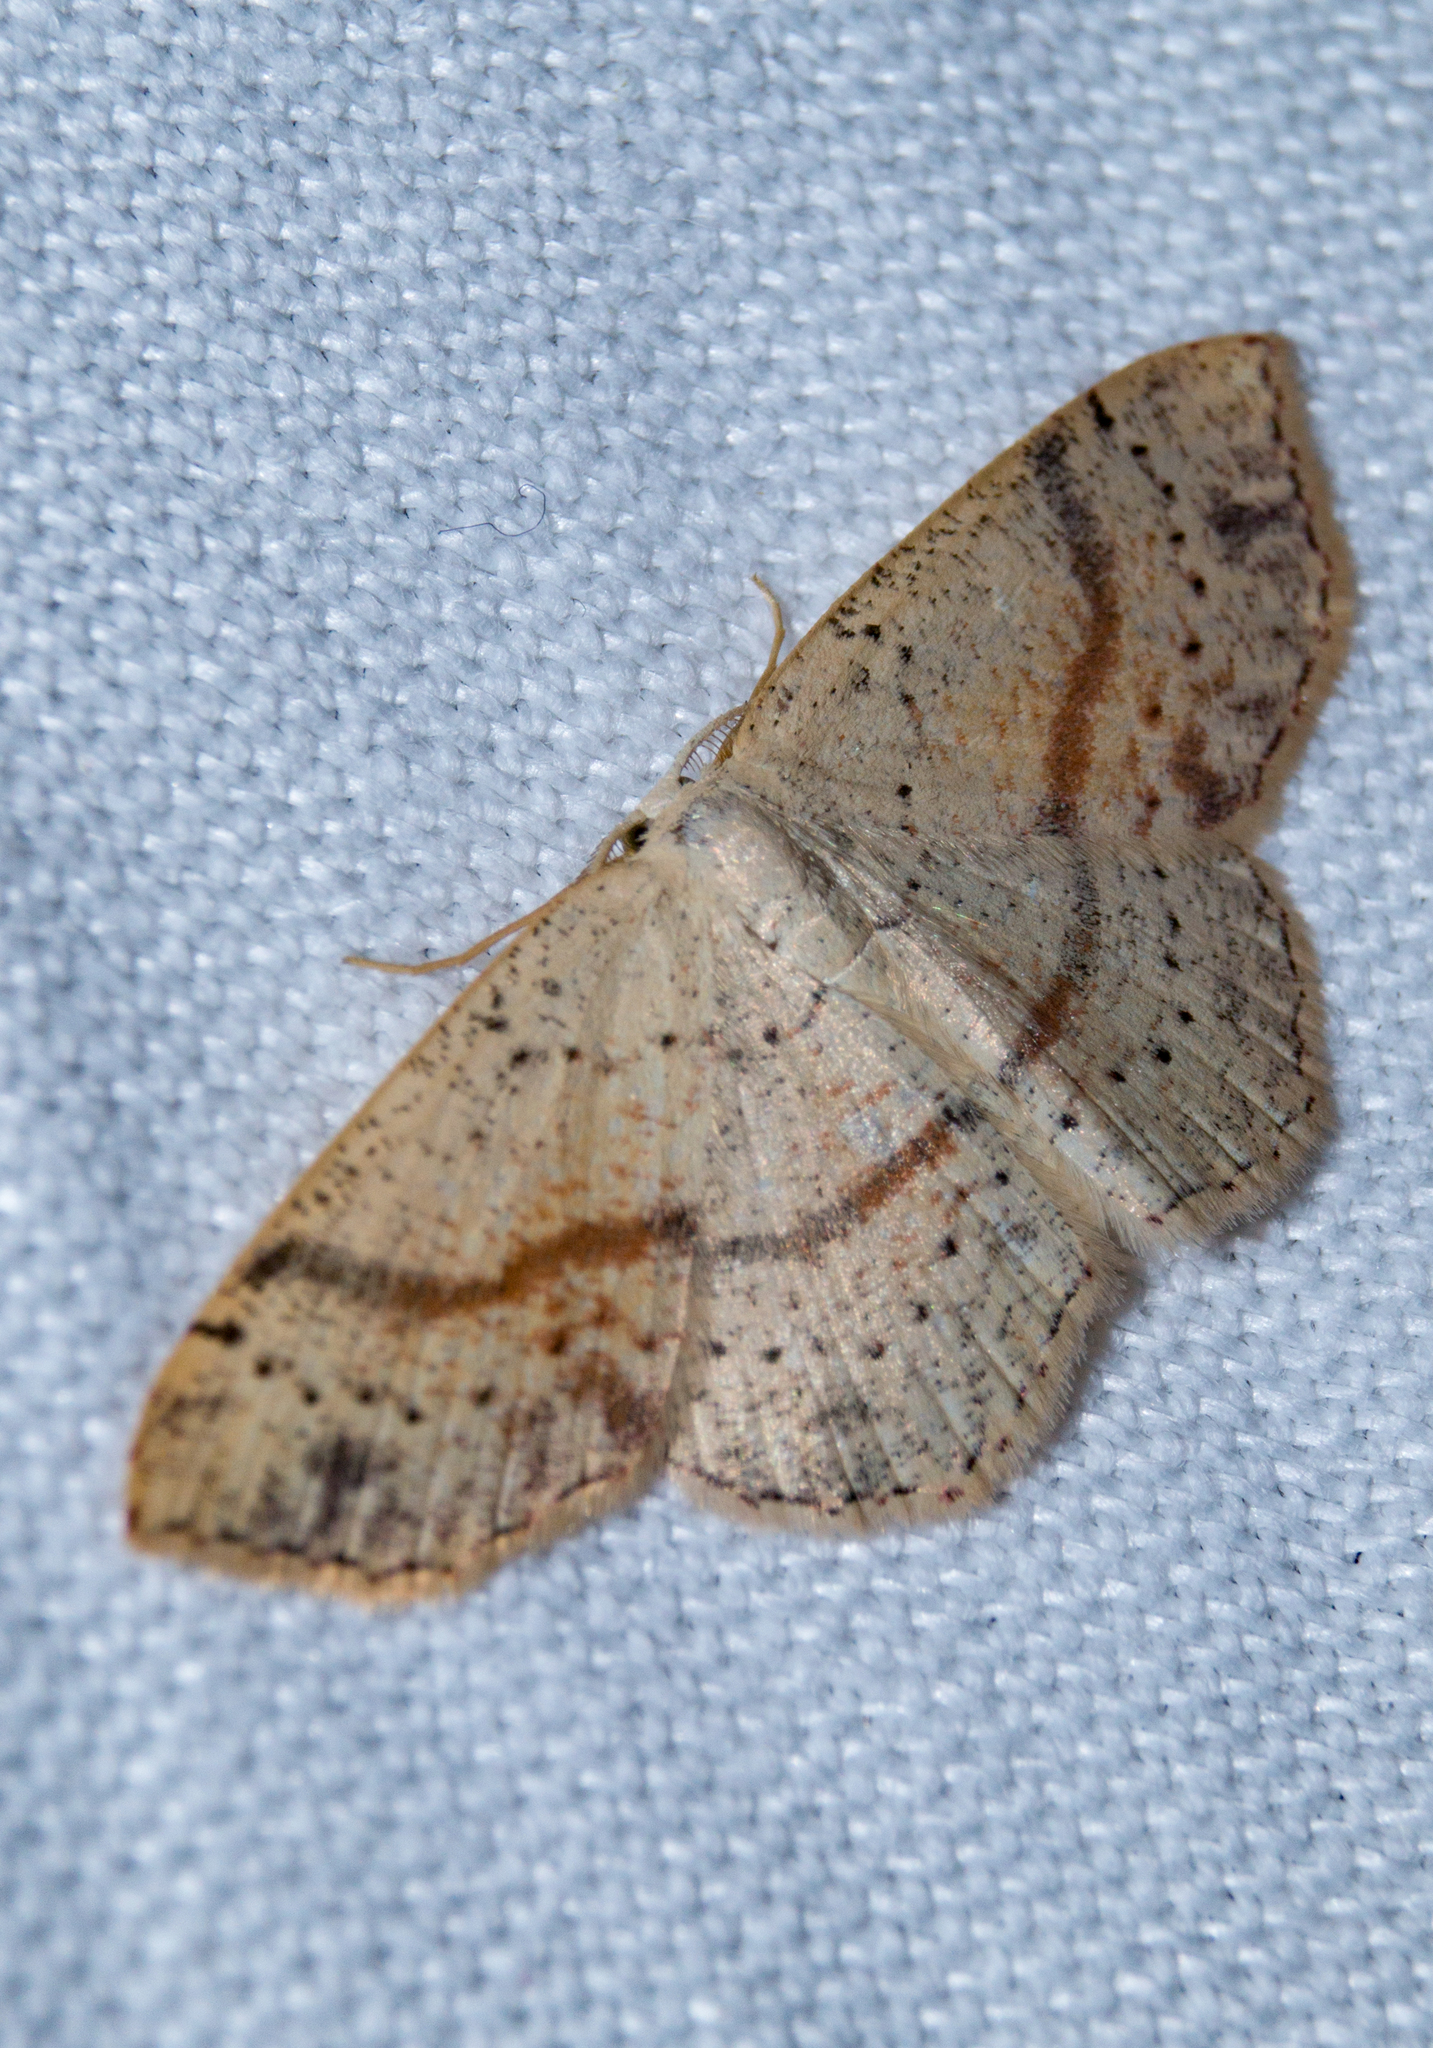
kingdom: Animalia
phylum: Arthropoda
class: Insecta
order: Lepidoptera
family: Geometridae
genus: Cyclophora
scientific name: Cyclophora punctaria
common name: Maiden's blush
